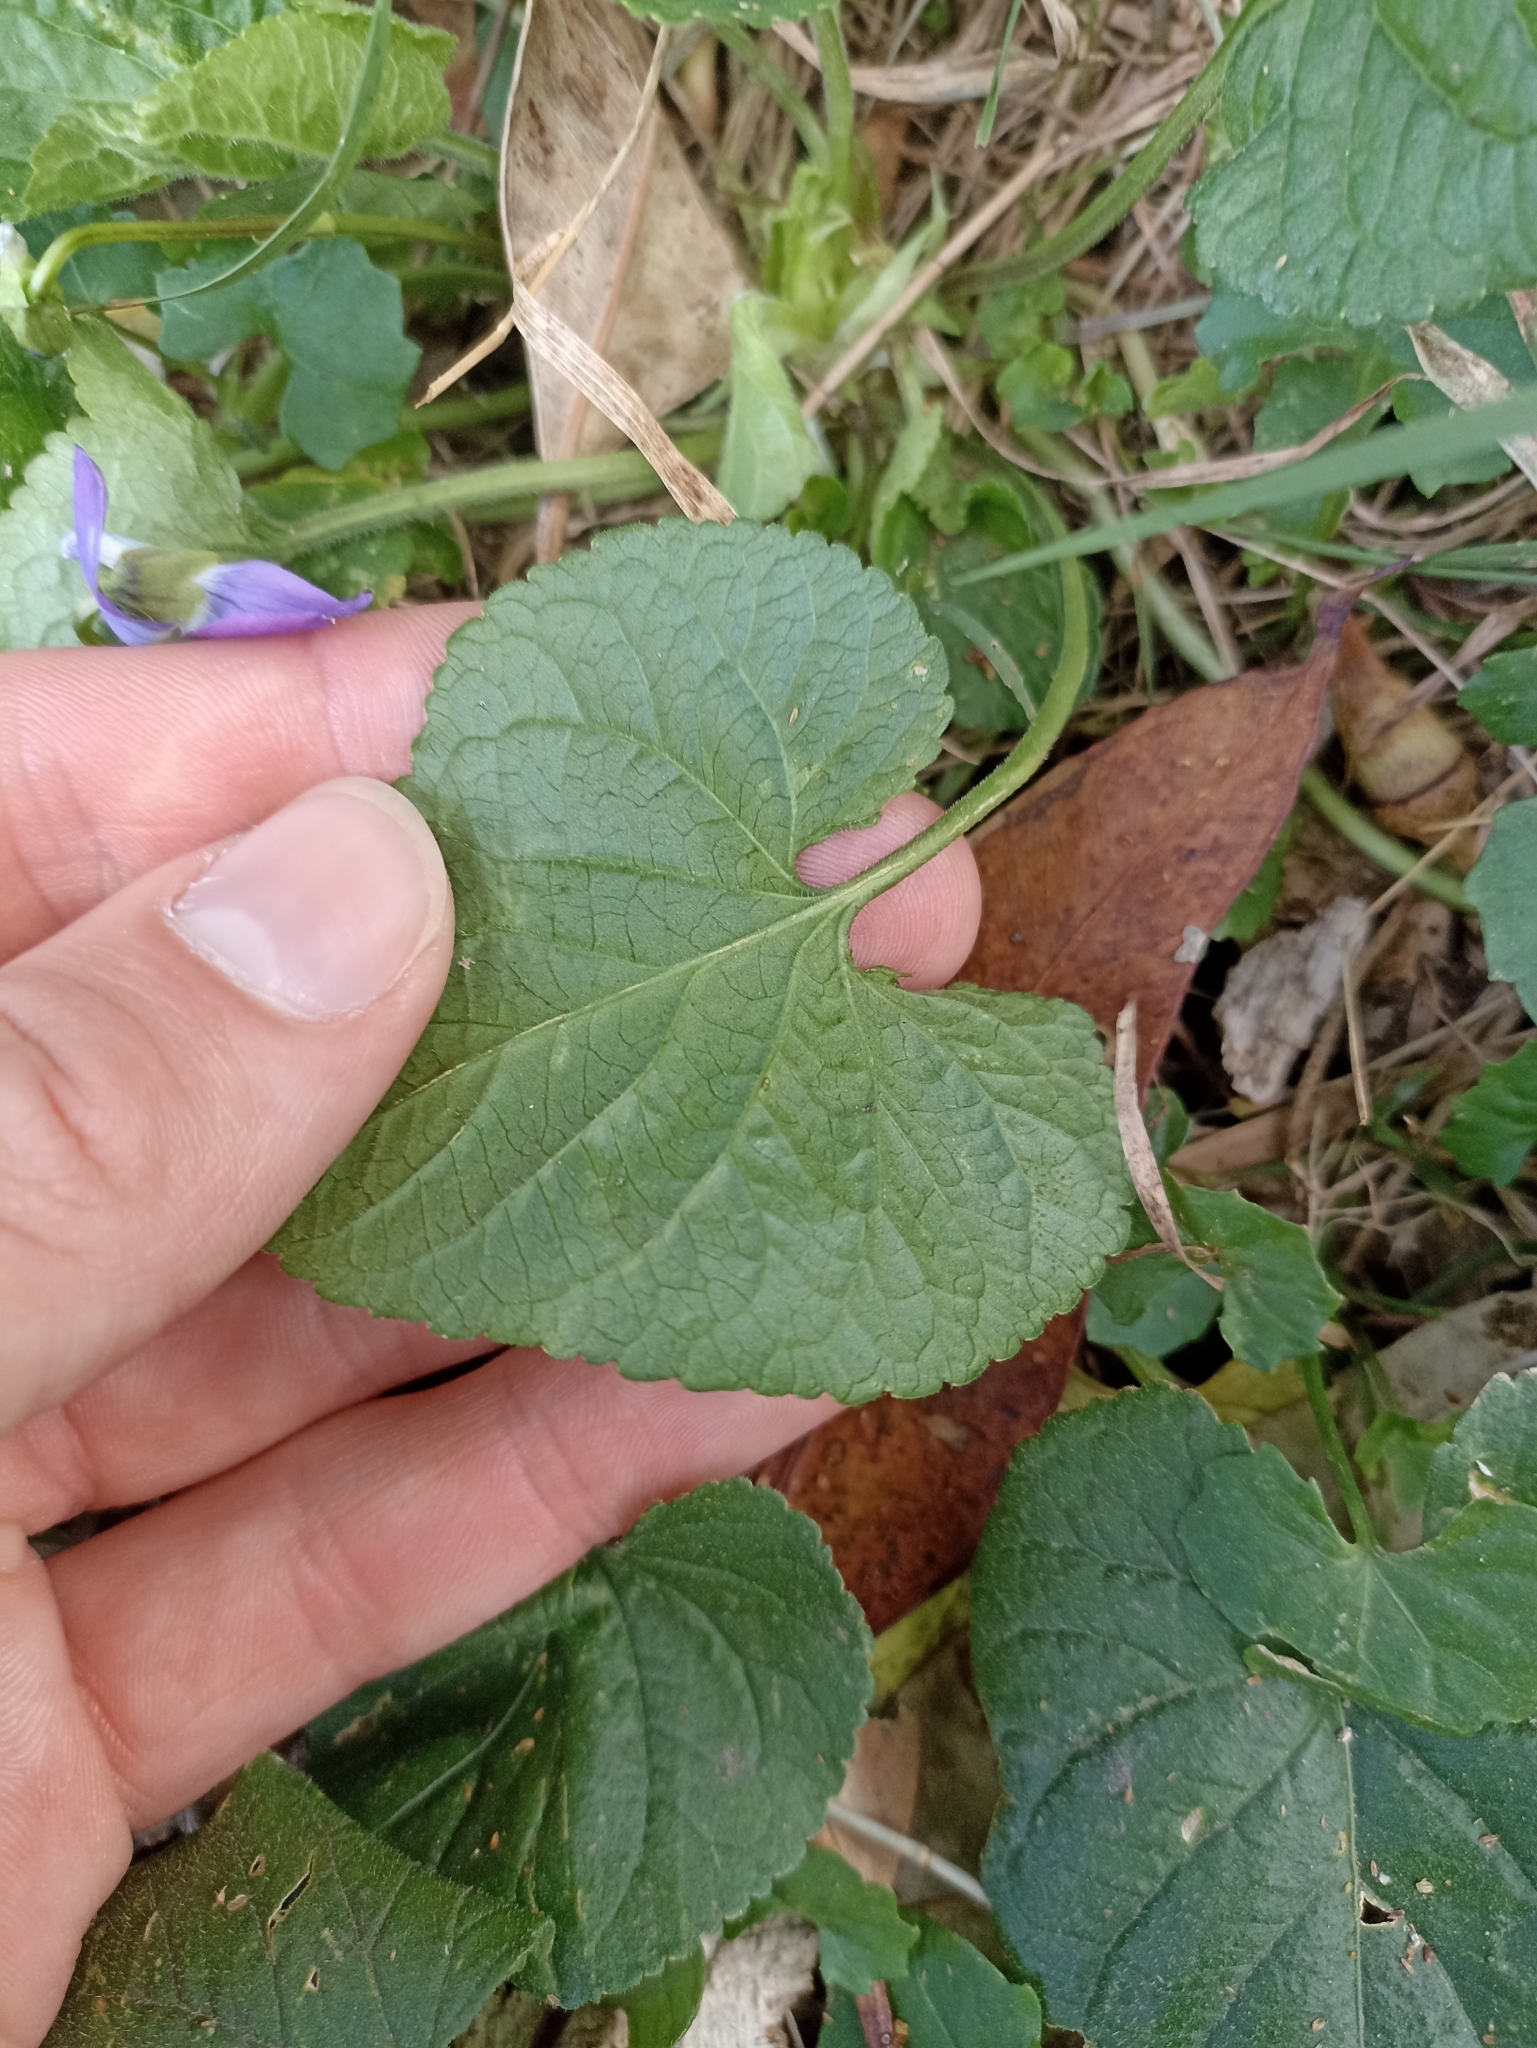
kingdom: Plantae
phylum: Tracheophyta
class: Magnoliopsida
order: Malpighiales
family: Violaceae
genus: Viola
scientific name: Viola odorata
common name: Sweet violet
